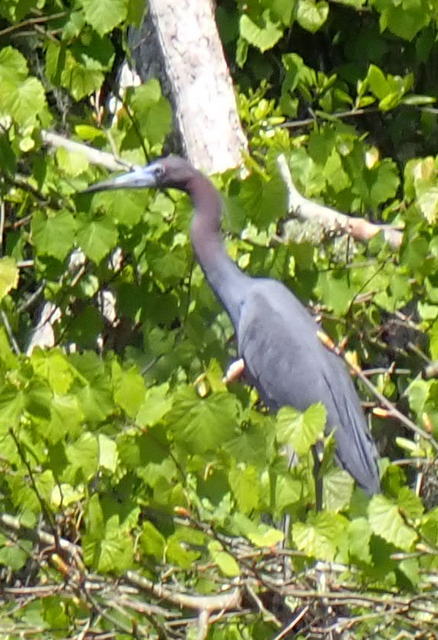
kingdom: Animalia
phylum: Chordata
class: Aves
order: Pelecaniformes
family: Ardeidae
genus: Egretta
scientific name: Egretta caerulea
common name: Little blue heron
